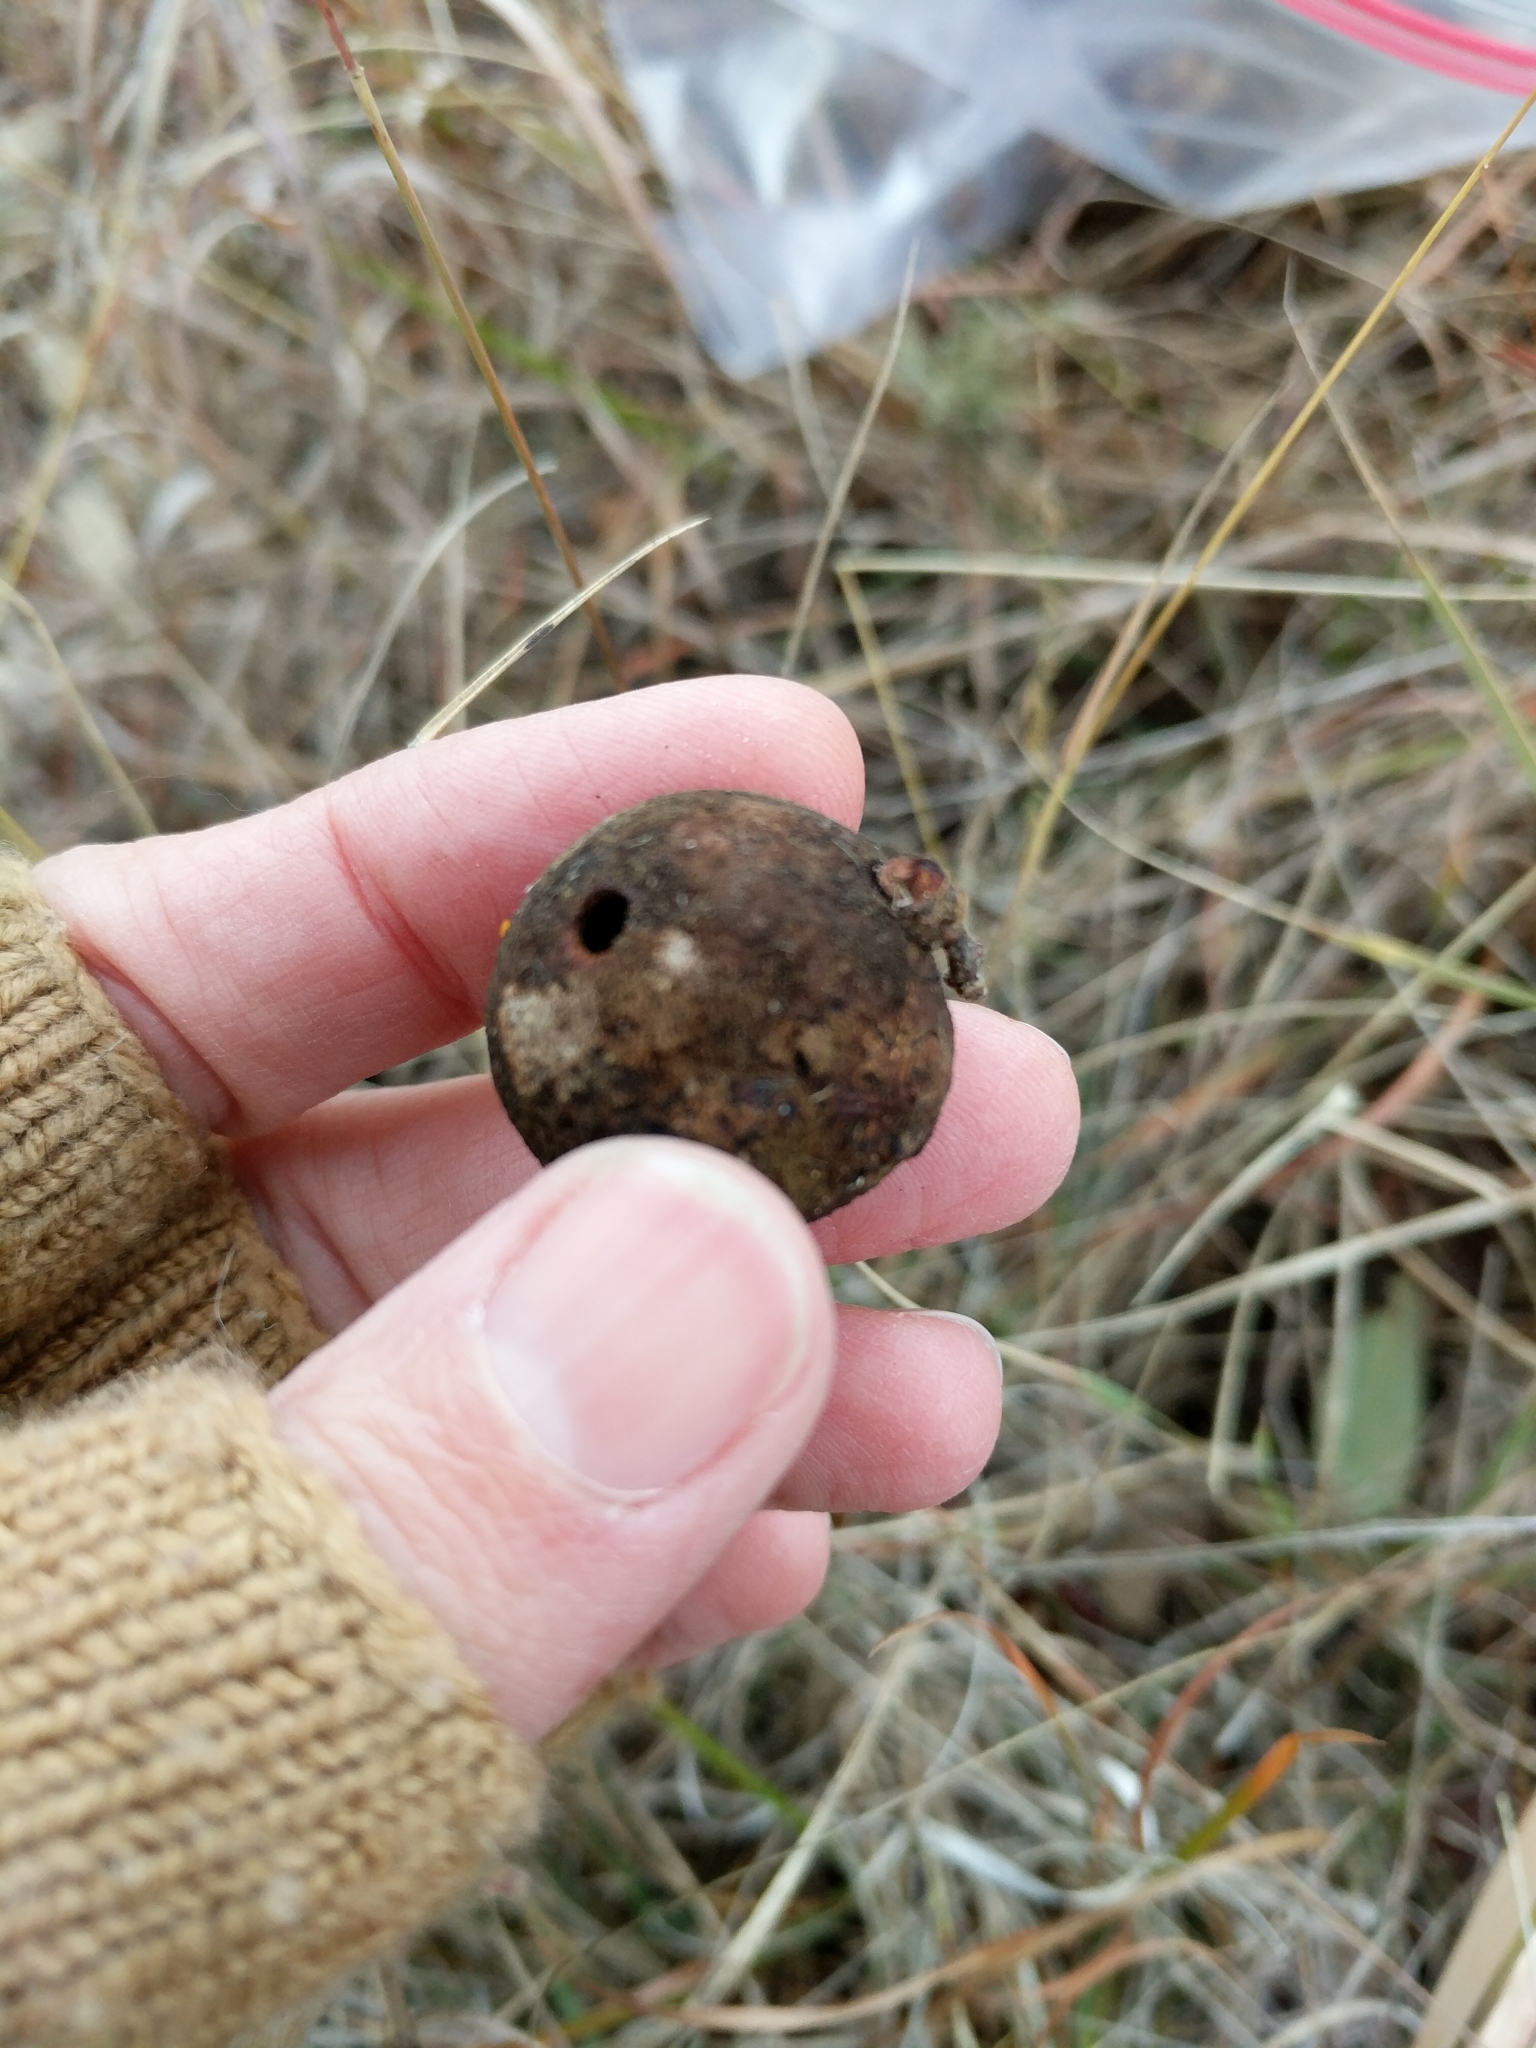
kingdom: Animalia
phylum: Arthropoda
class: Insecta
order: Hymenoptera
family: Cynipidae
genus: Disholcaspis
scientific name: Disholcaspis
